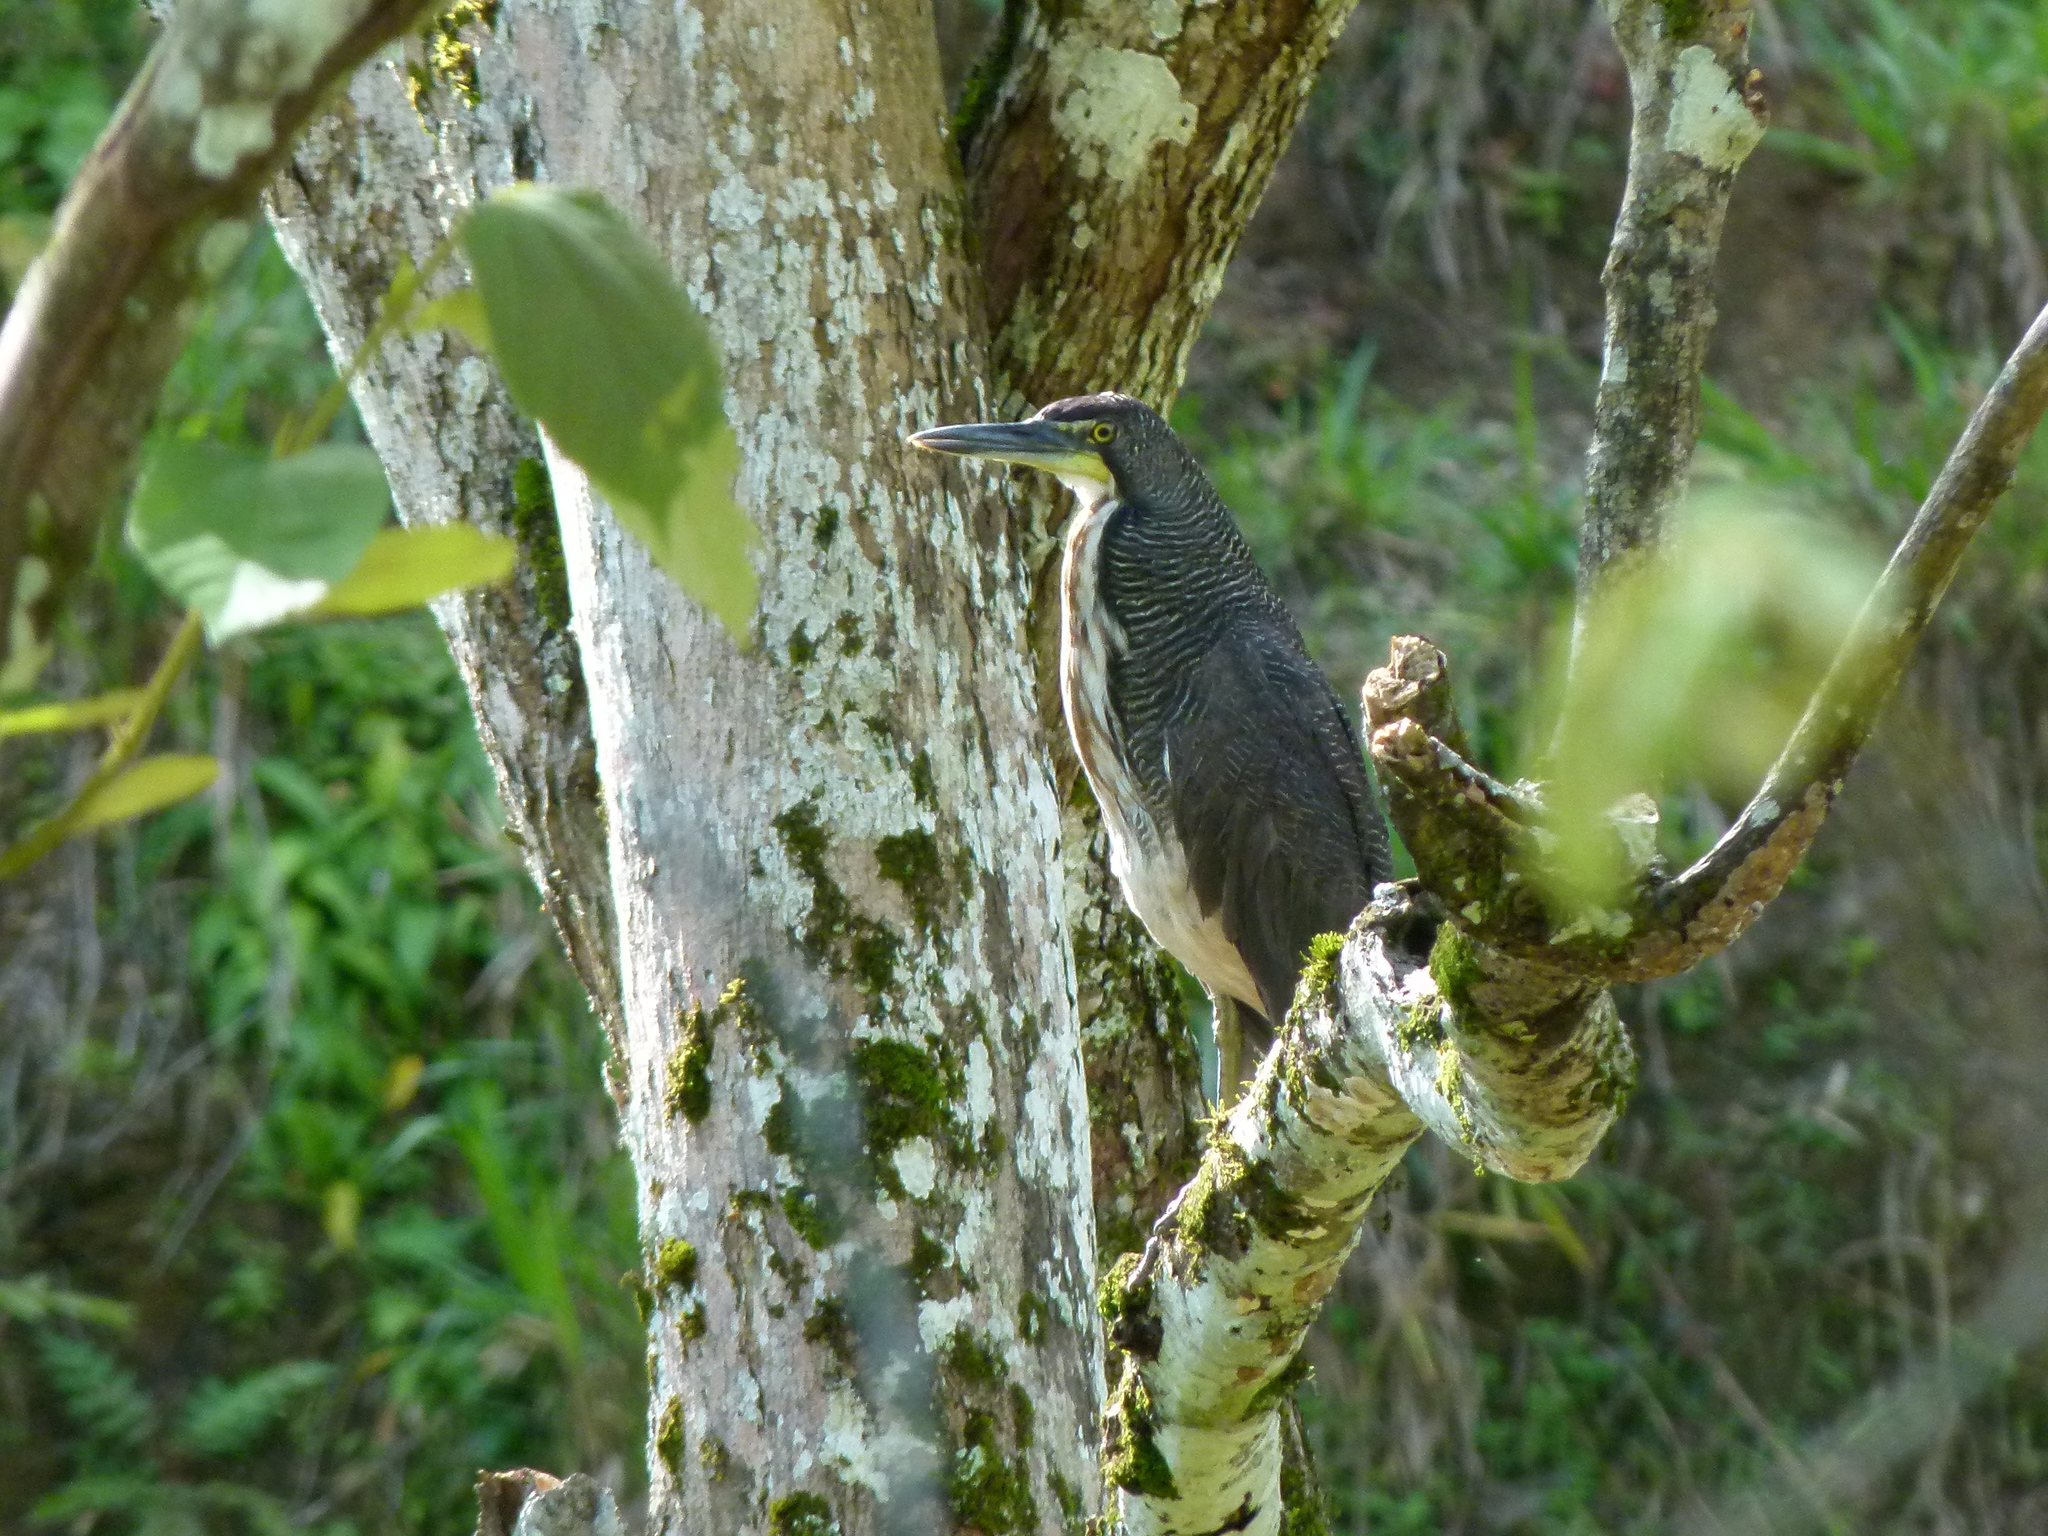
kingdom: Animalia
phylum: Chordata
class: Aves
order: Pelecaniformes
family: Ardeidae
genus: Tigrisoma
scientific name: Tigrisoma fasciatum
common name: Fasciated tiger-heron
